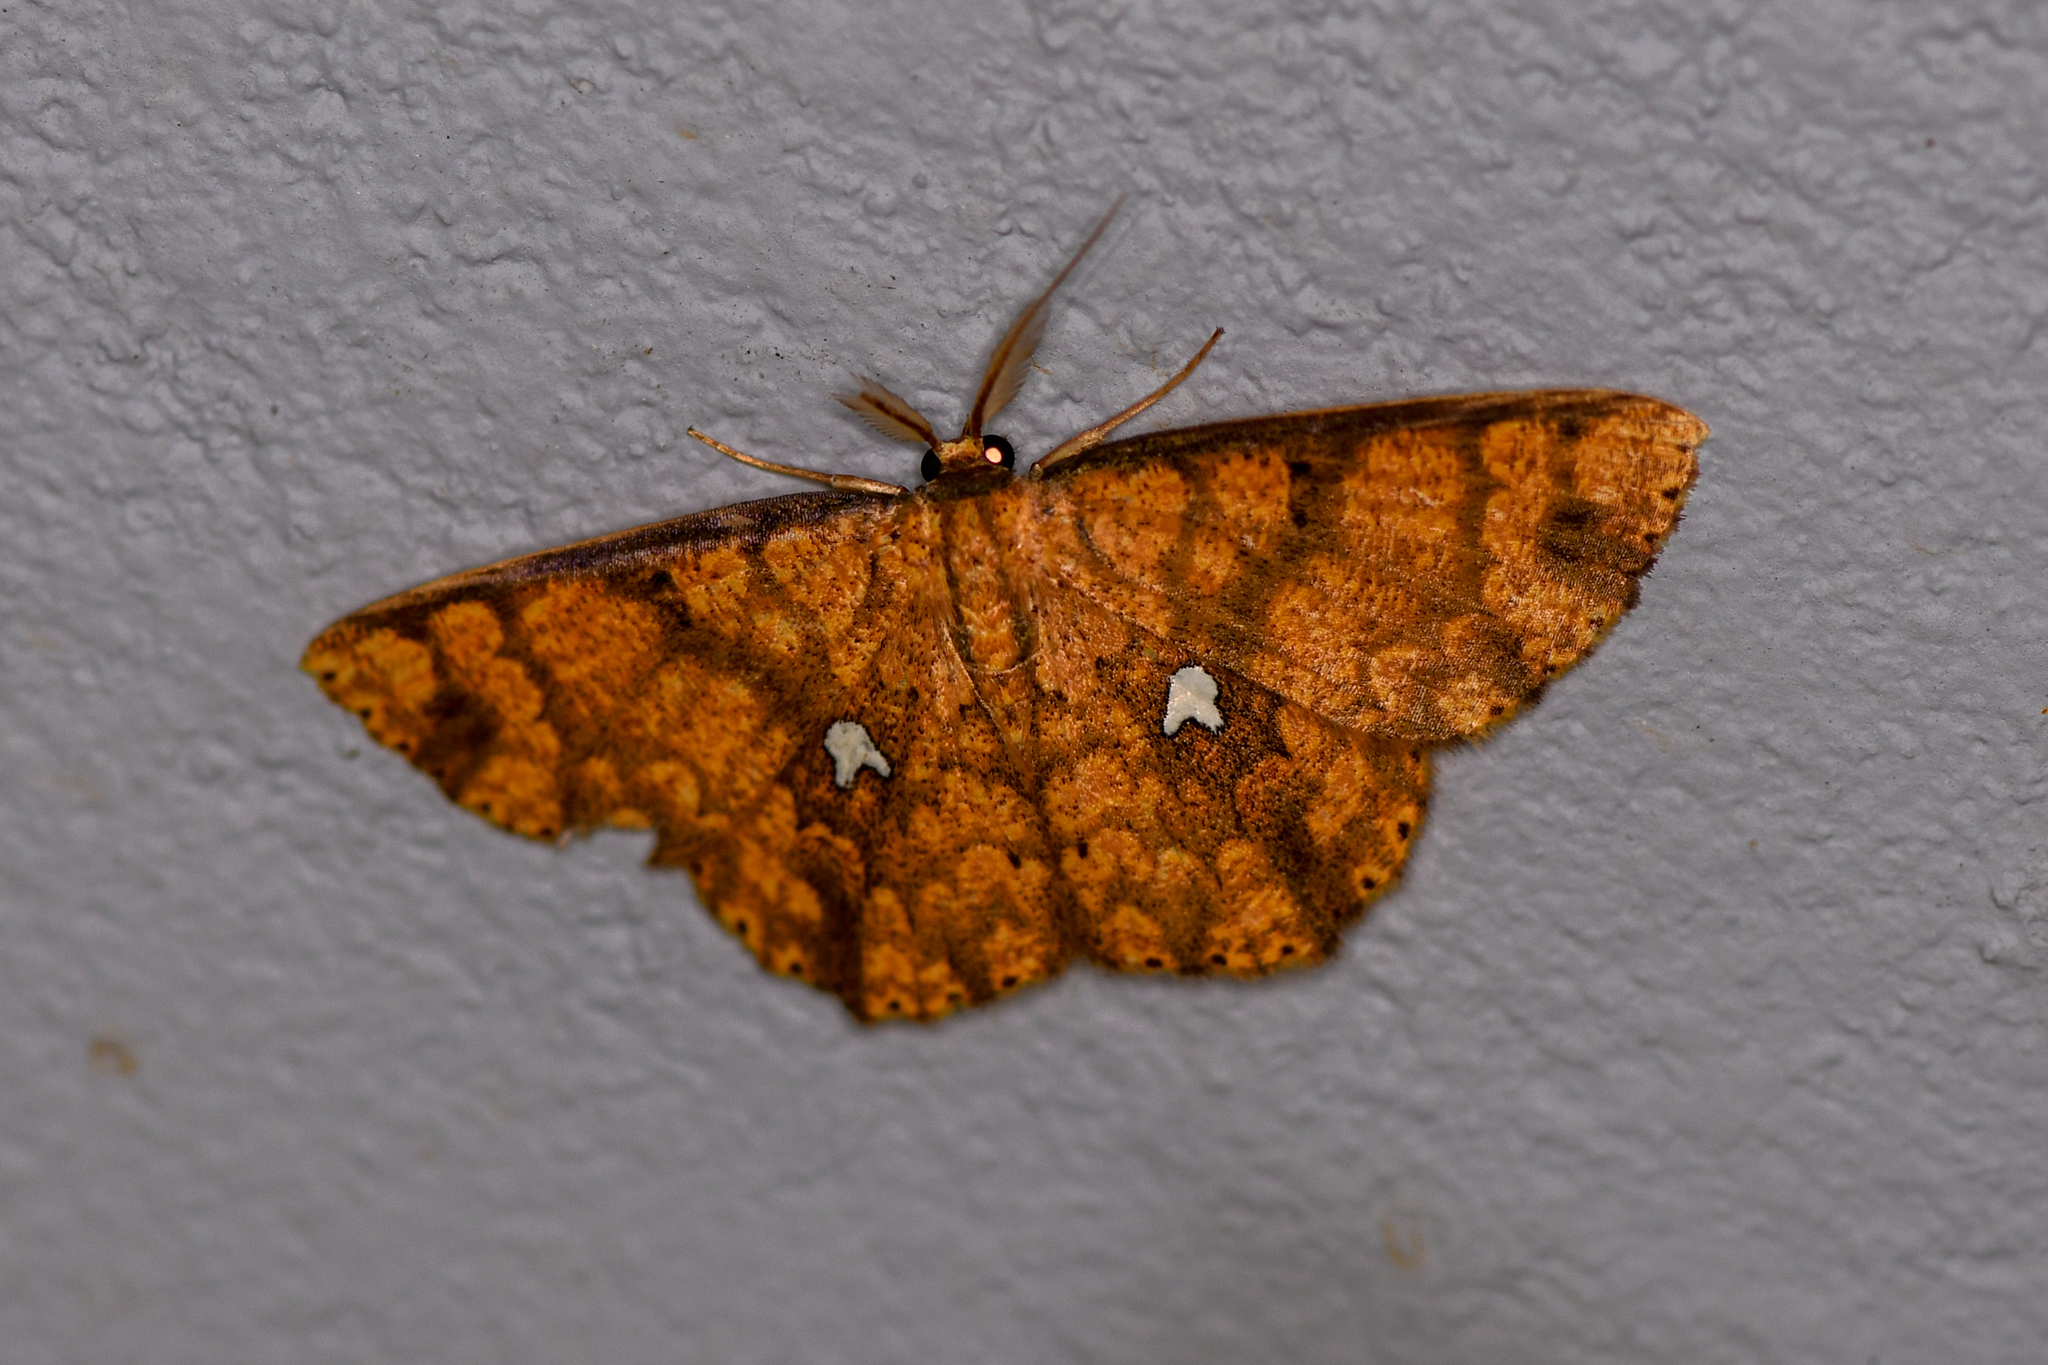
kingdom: Animalia
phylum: Arthropoda
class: Insecta
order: Lepidoptera
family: Geometridae
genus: Cyclophora
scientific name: Cyclophora nodigera
